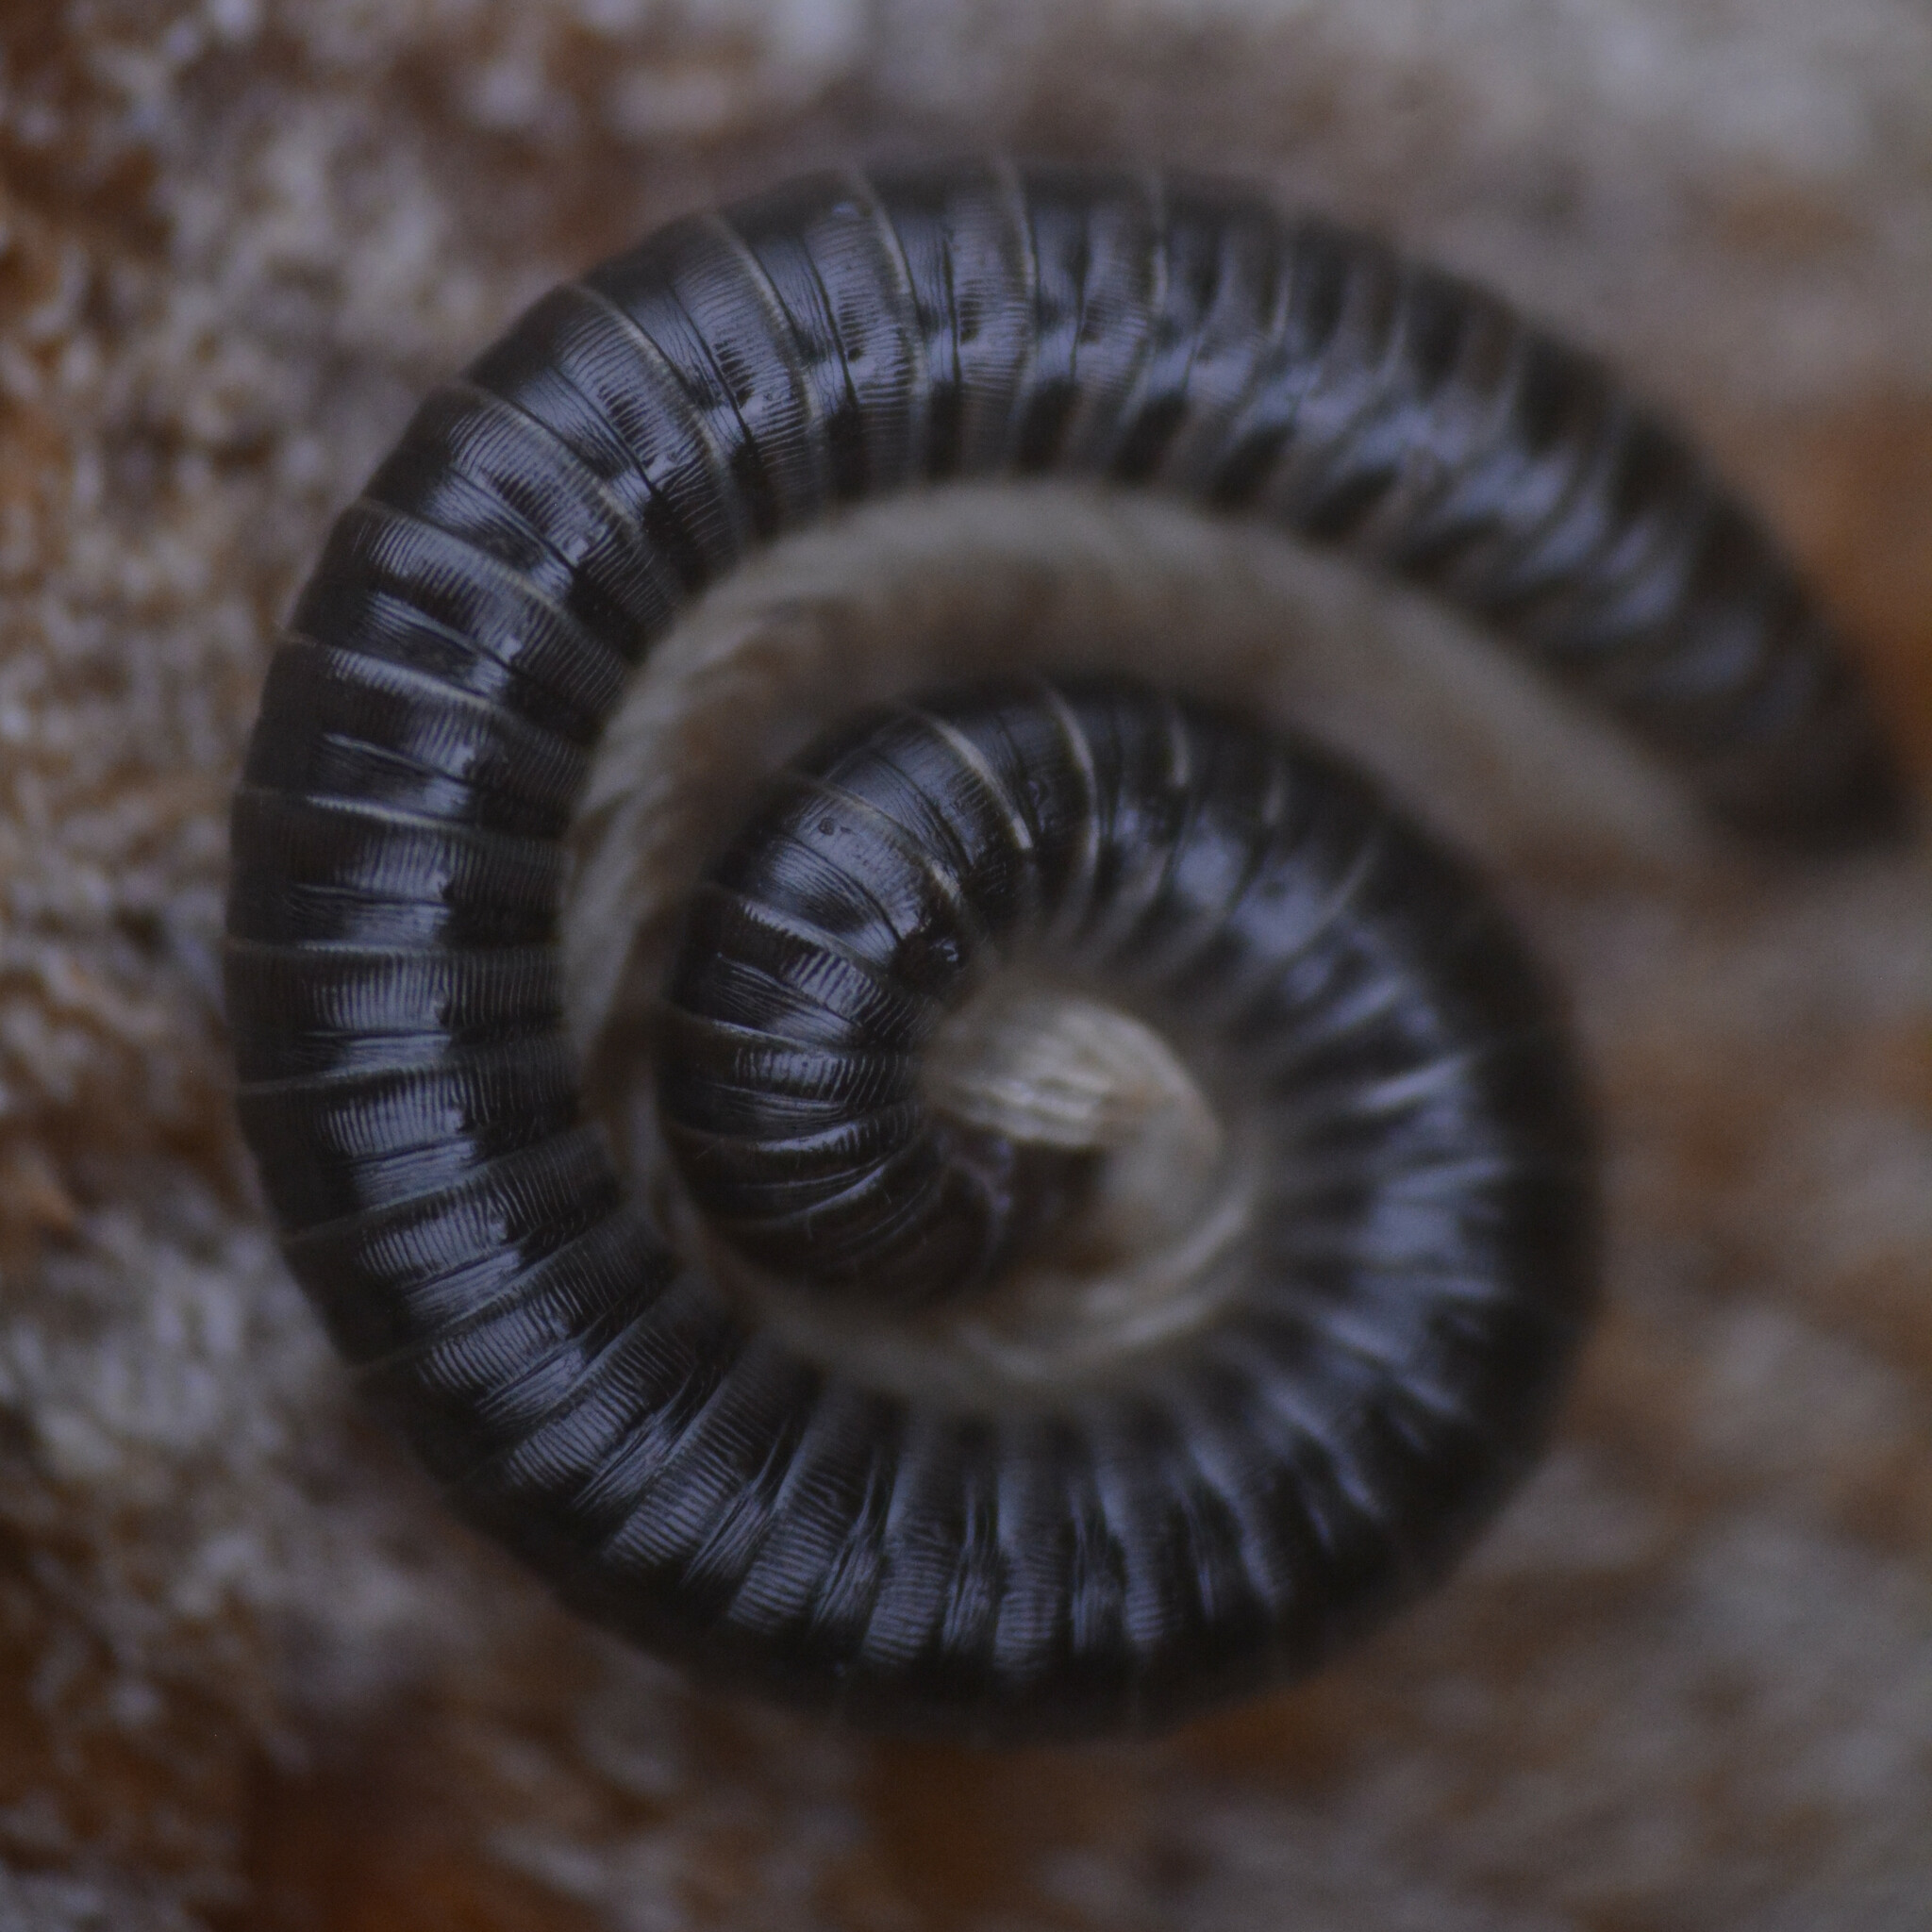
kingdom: Animalia
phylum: Arthropoda
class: Diplopoda
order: Julida
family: Julidae
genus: Tachypodoiulus
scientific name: Tachypodoiulus niger
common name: White-legged snake millipede
